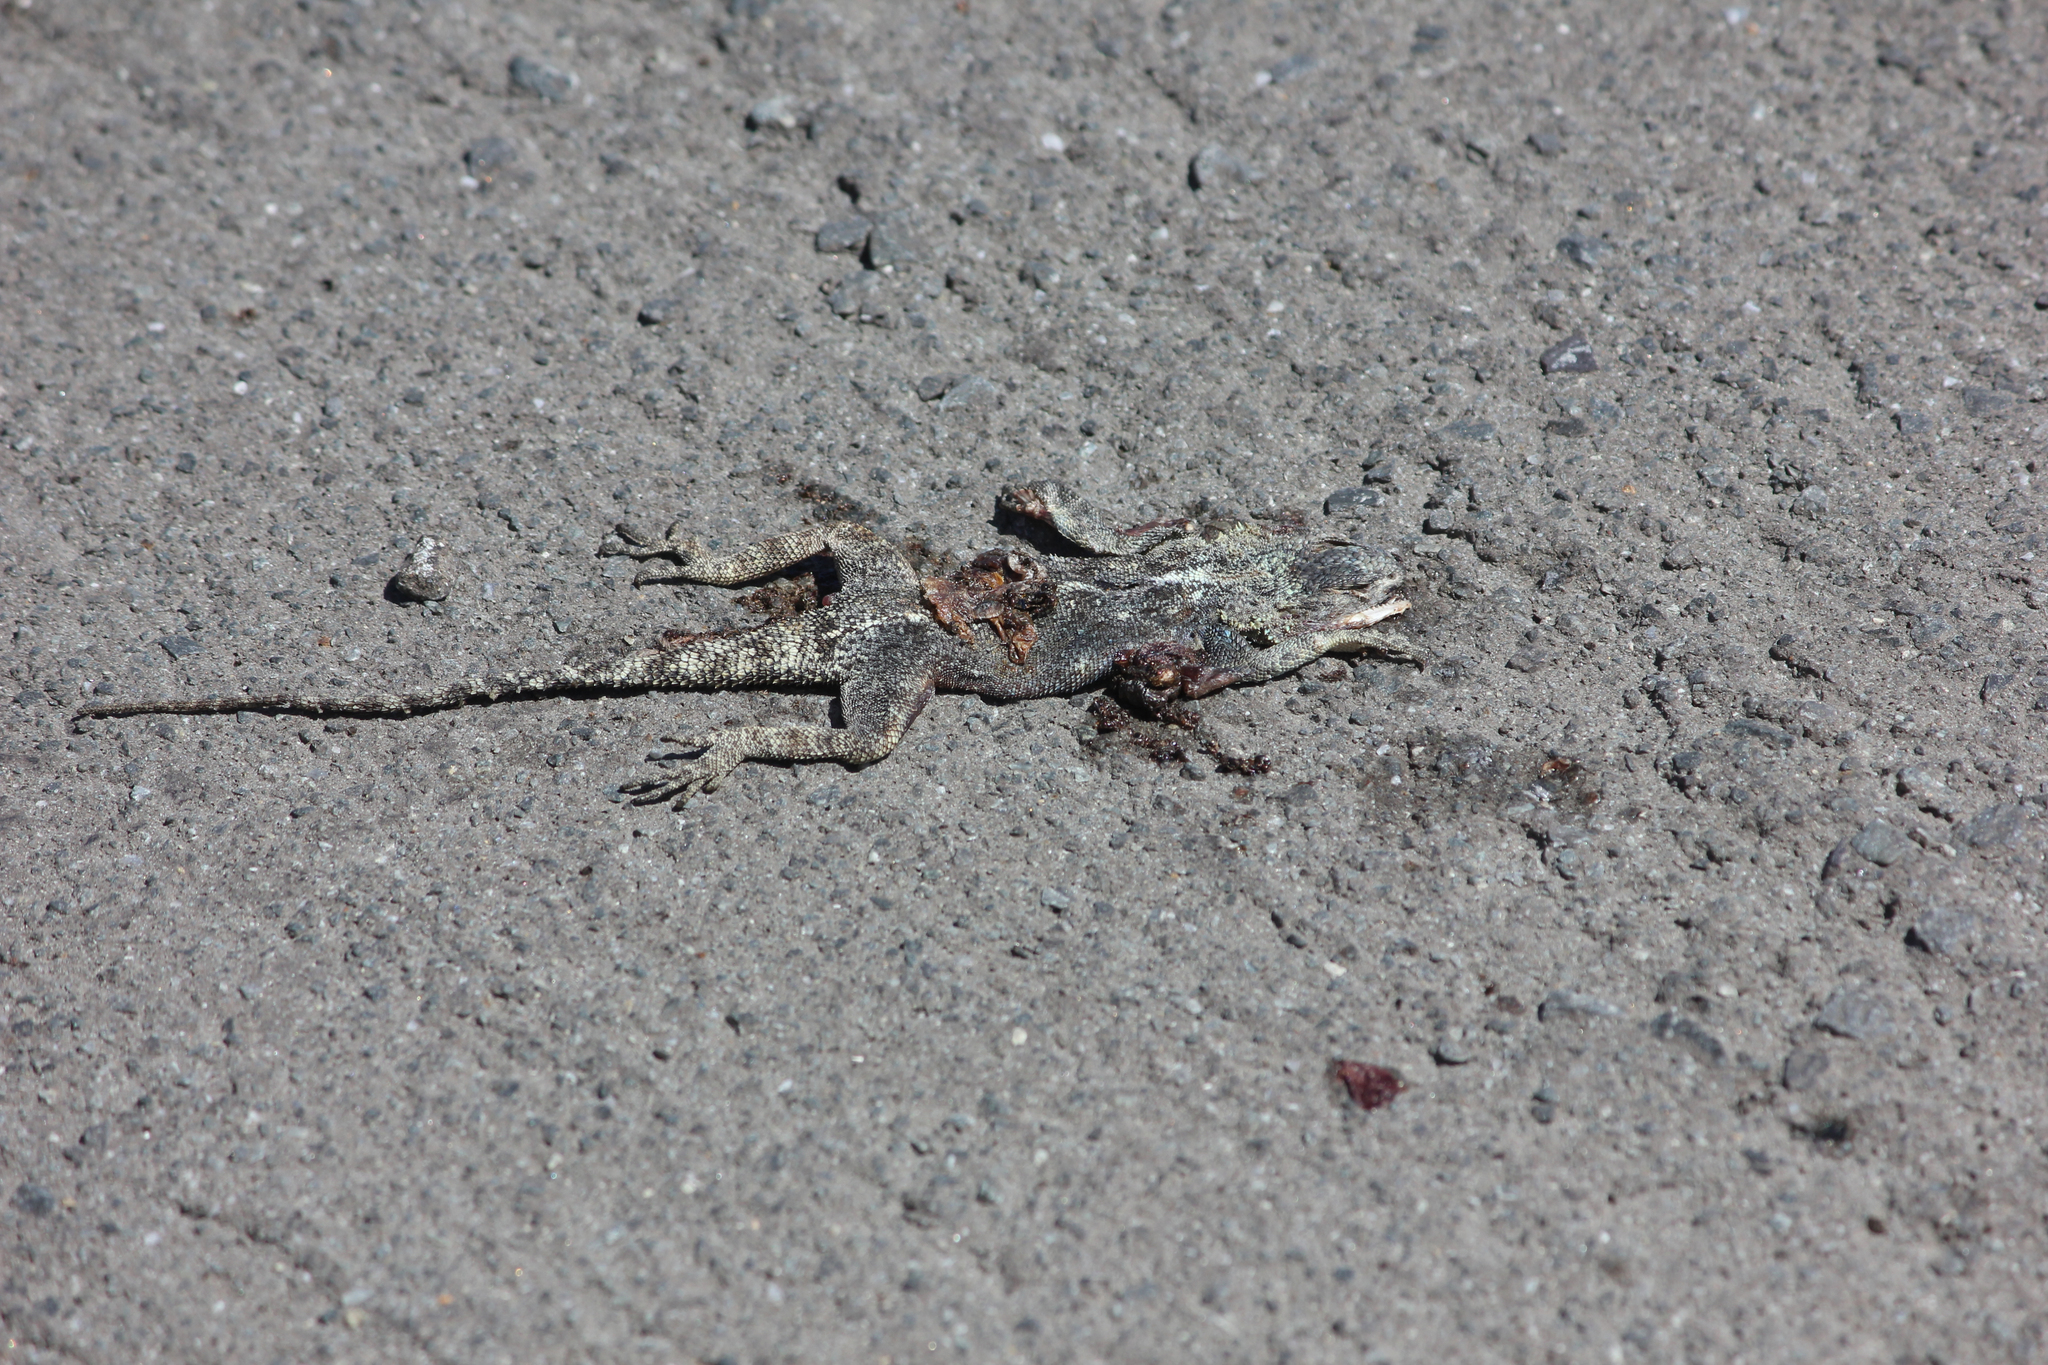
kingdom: Animalia
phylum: Chordata
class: Squamata
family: Agamidae
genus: Agama
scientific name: Agama atra
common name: Southern african rock agama
